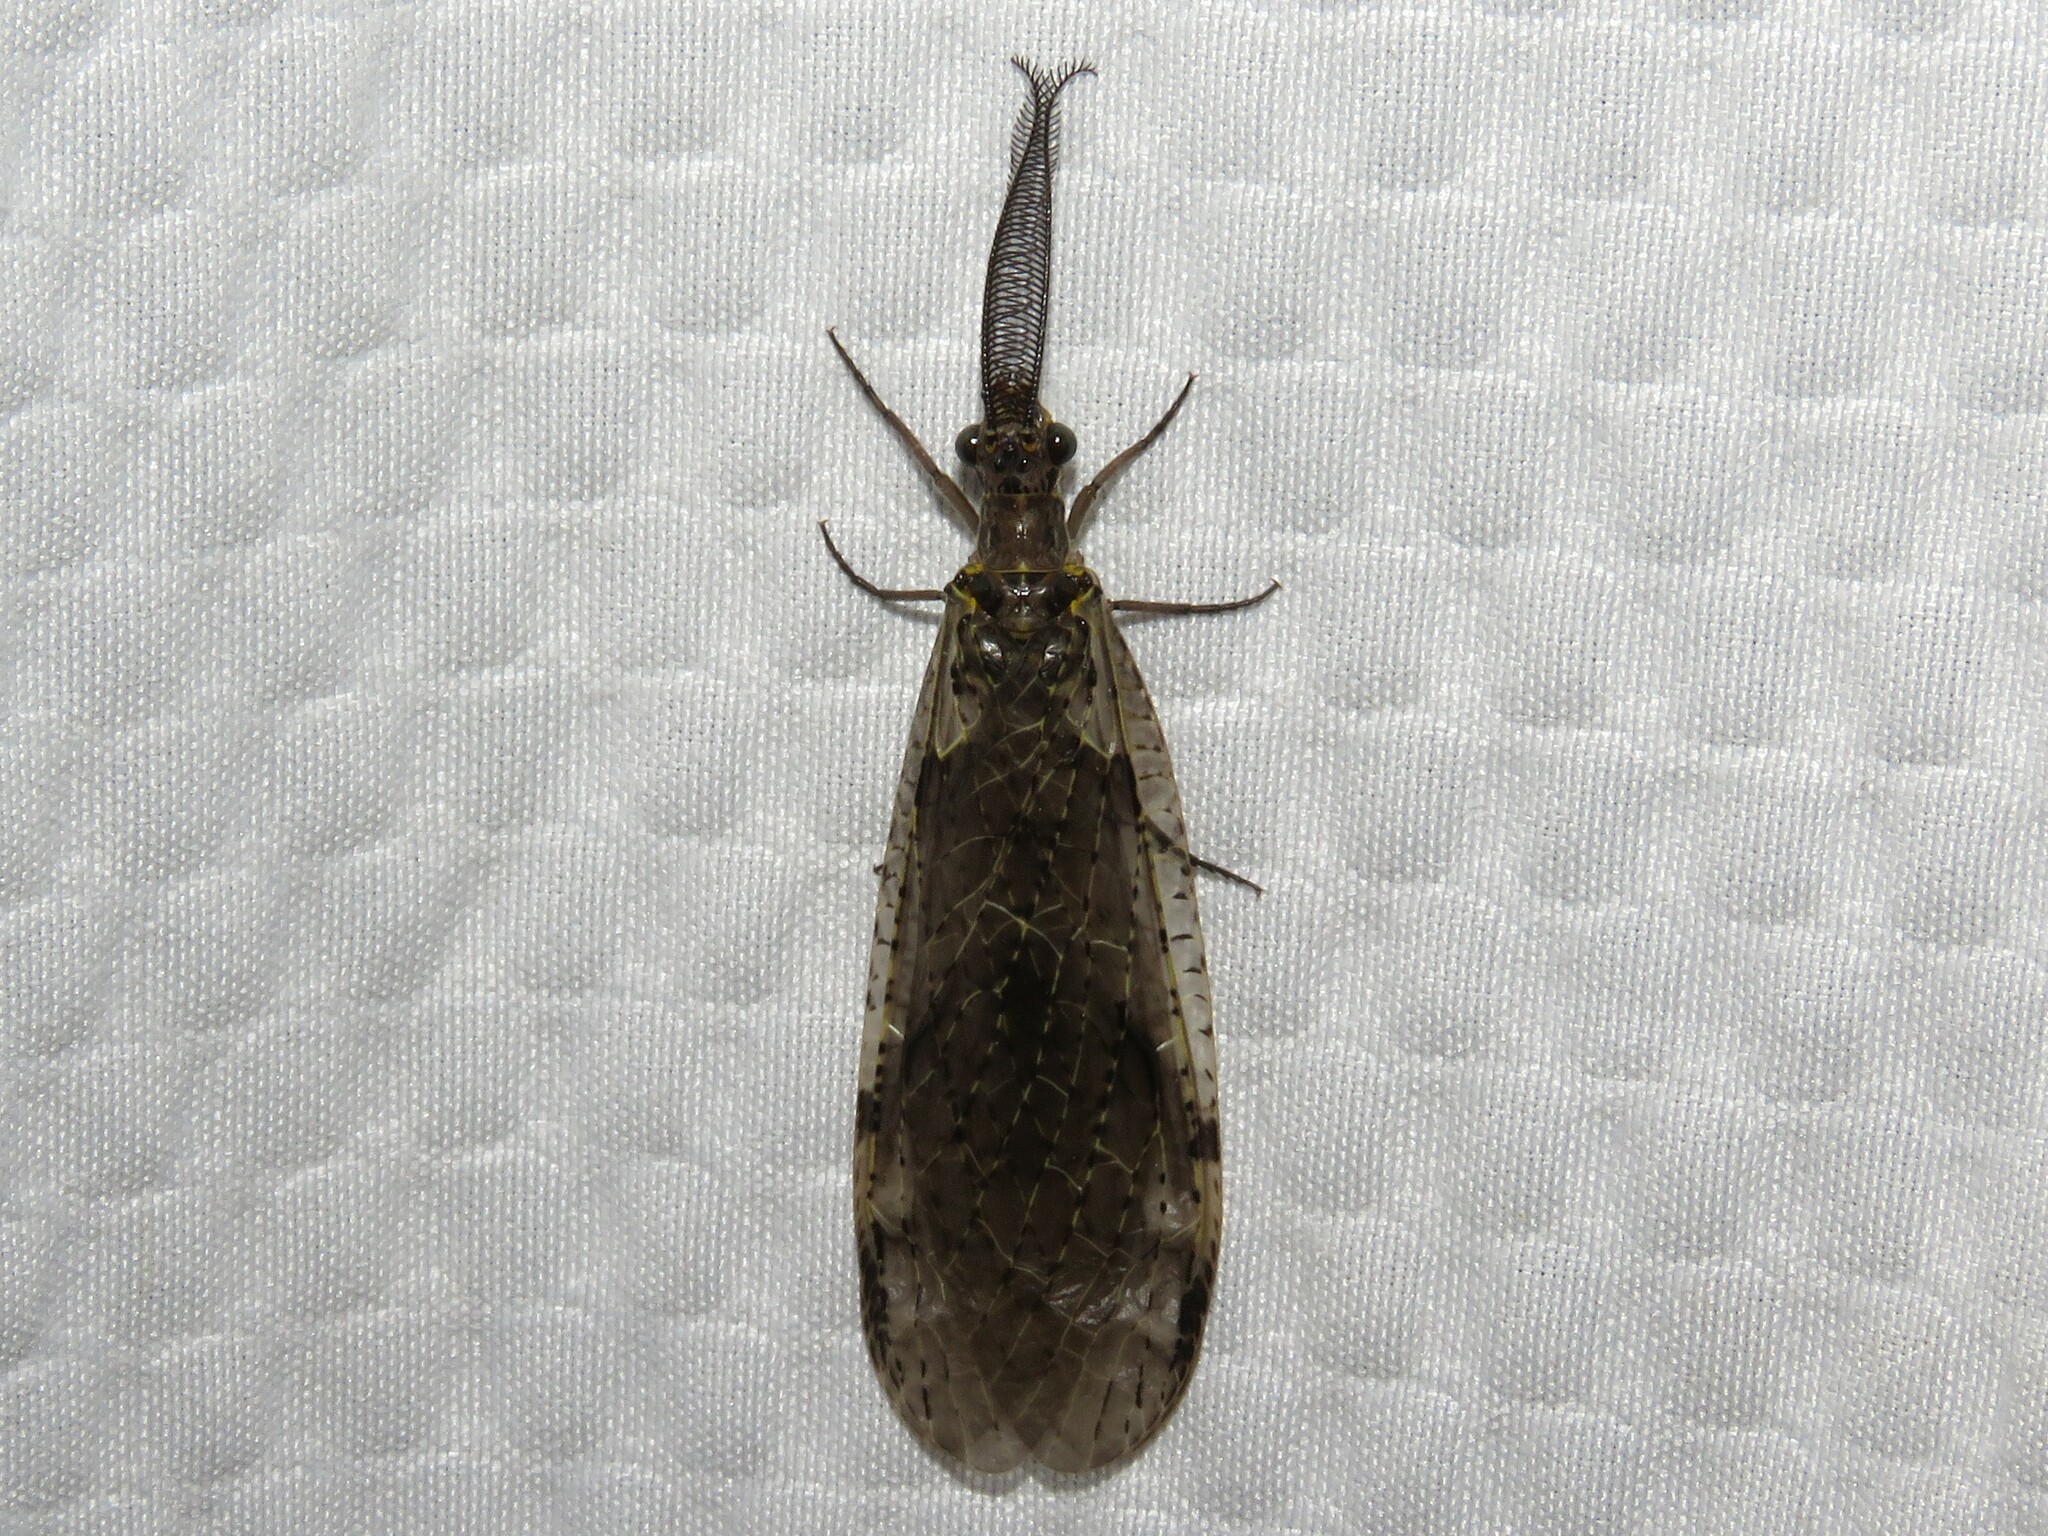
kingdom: Animalia
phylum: Arthropoda
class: Insecta
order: Megaloptera
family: Corydalidae
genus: Chauliodes
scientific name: Chauliodes rastricornis
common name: Spring fishfly
